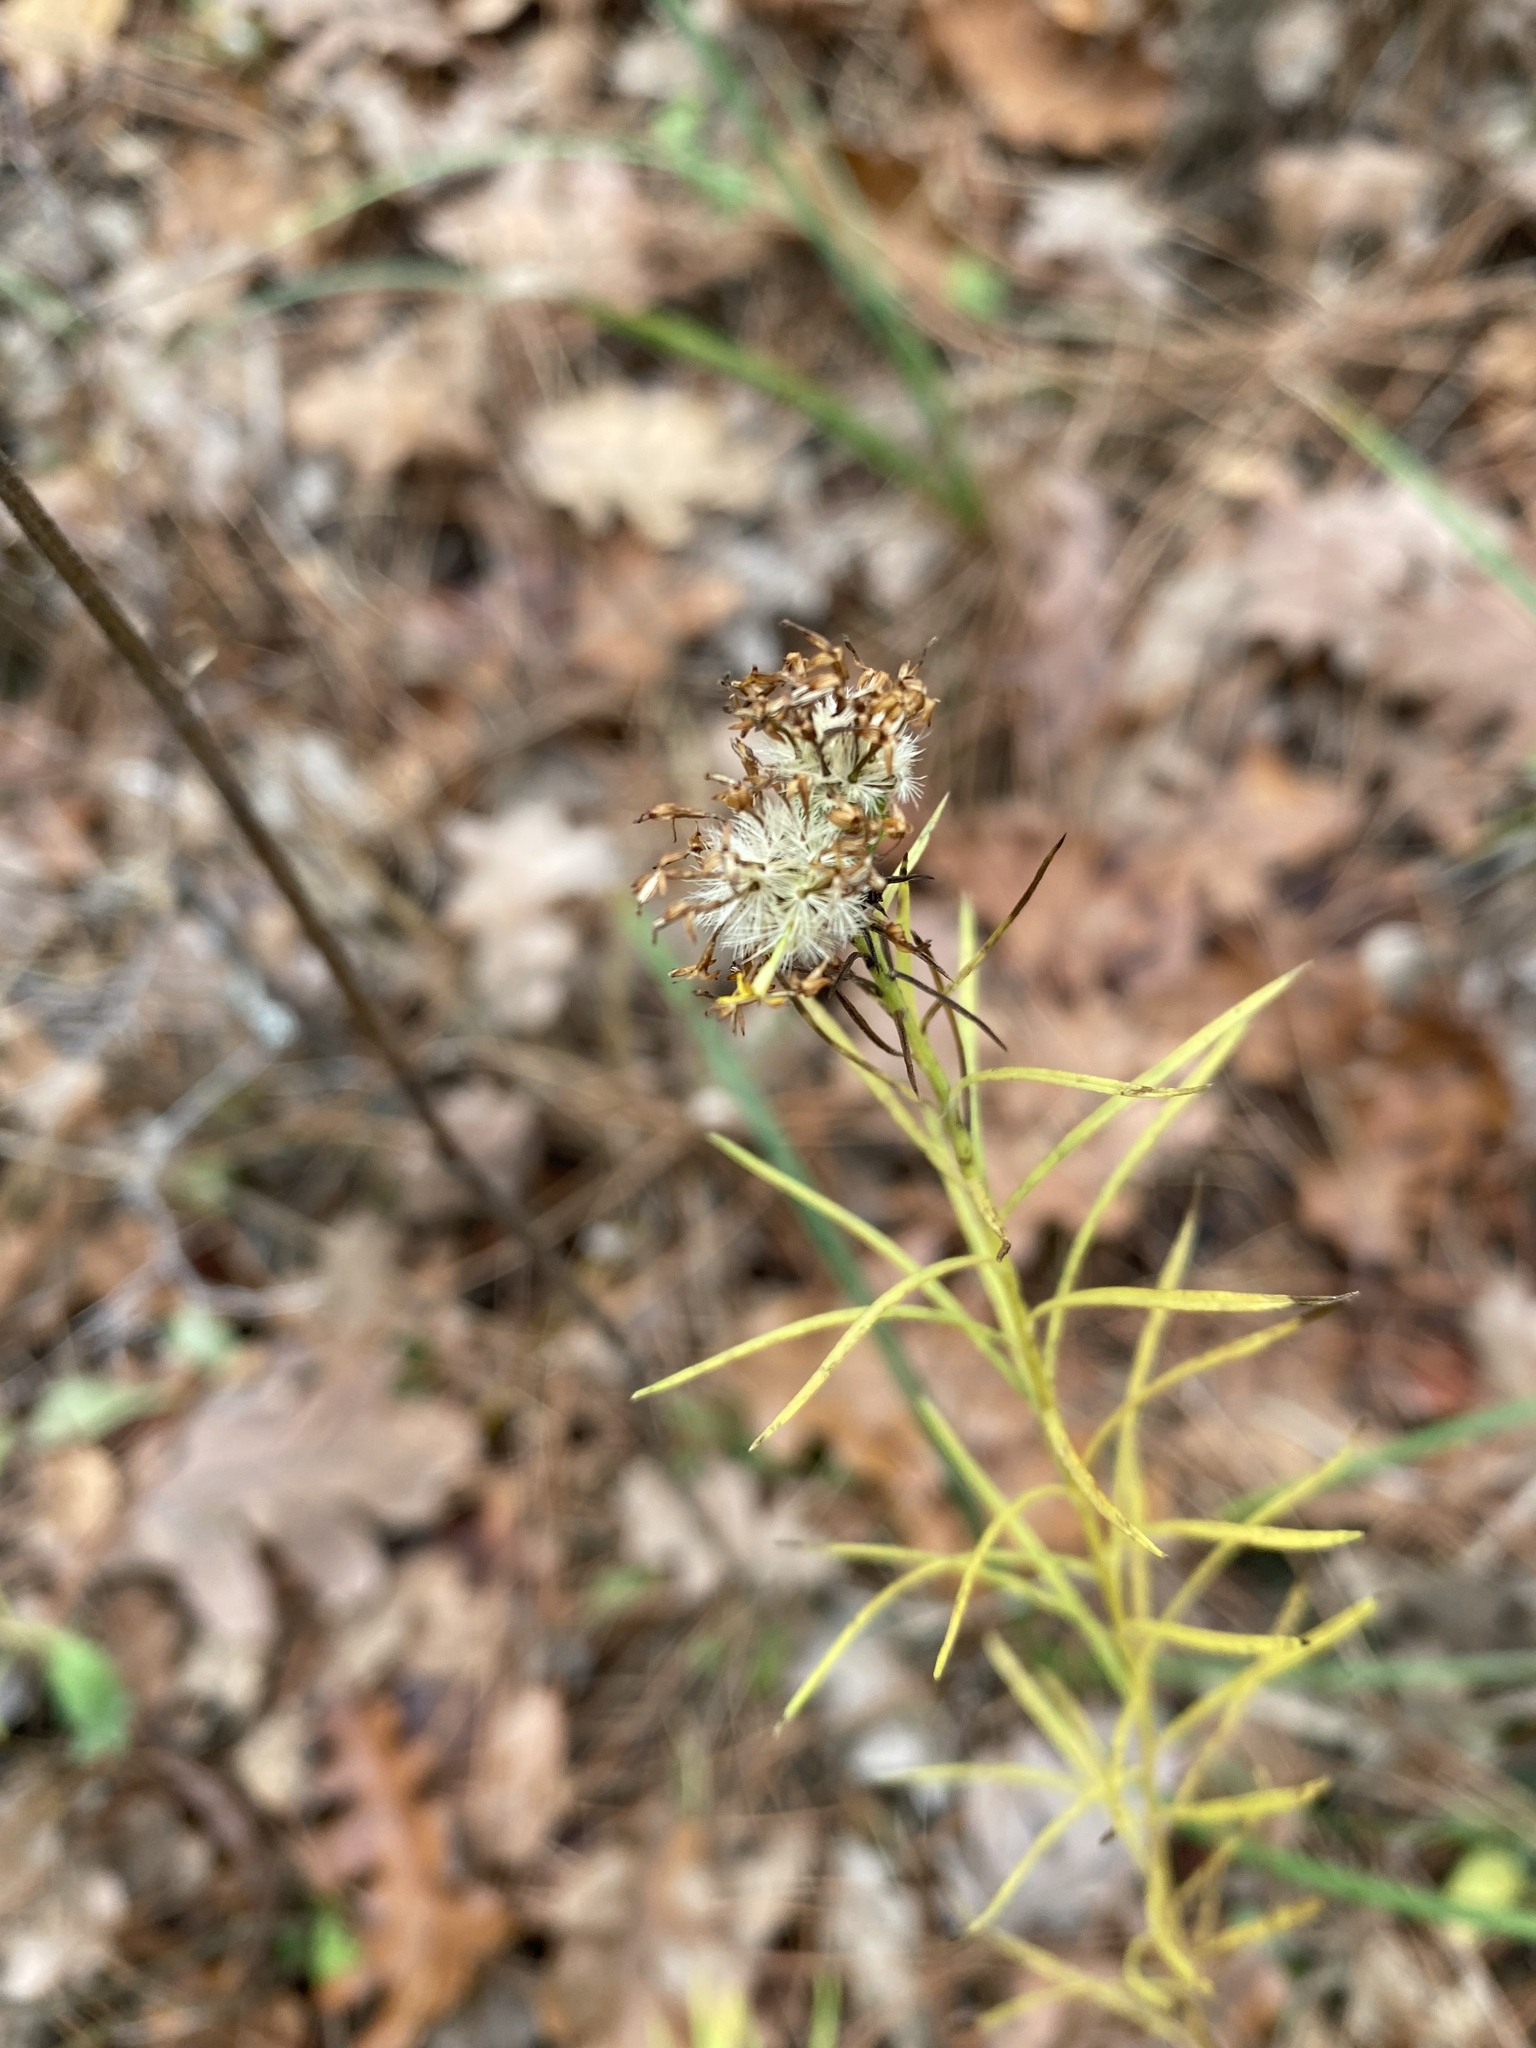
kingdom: Plantae
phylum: Tracheophyta
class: Magnoliopsida
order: Asterales
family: Asteraceae
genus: Galatella
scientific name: Galatella linosyris
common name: Goldilocks aster
